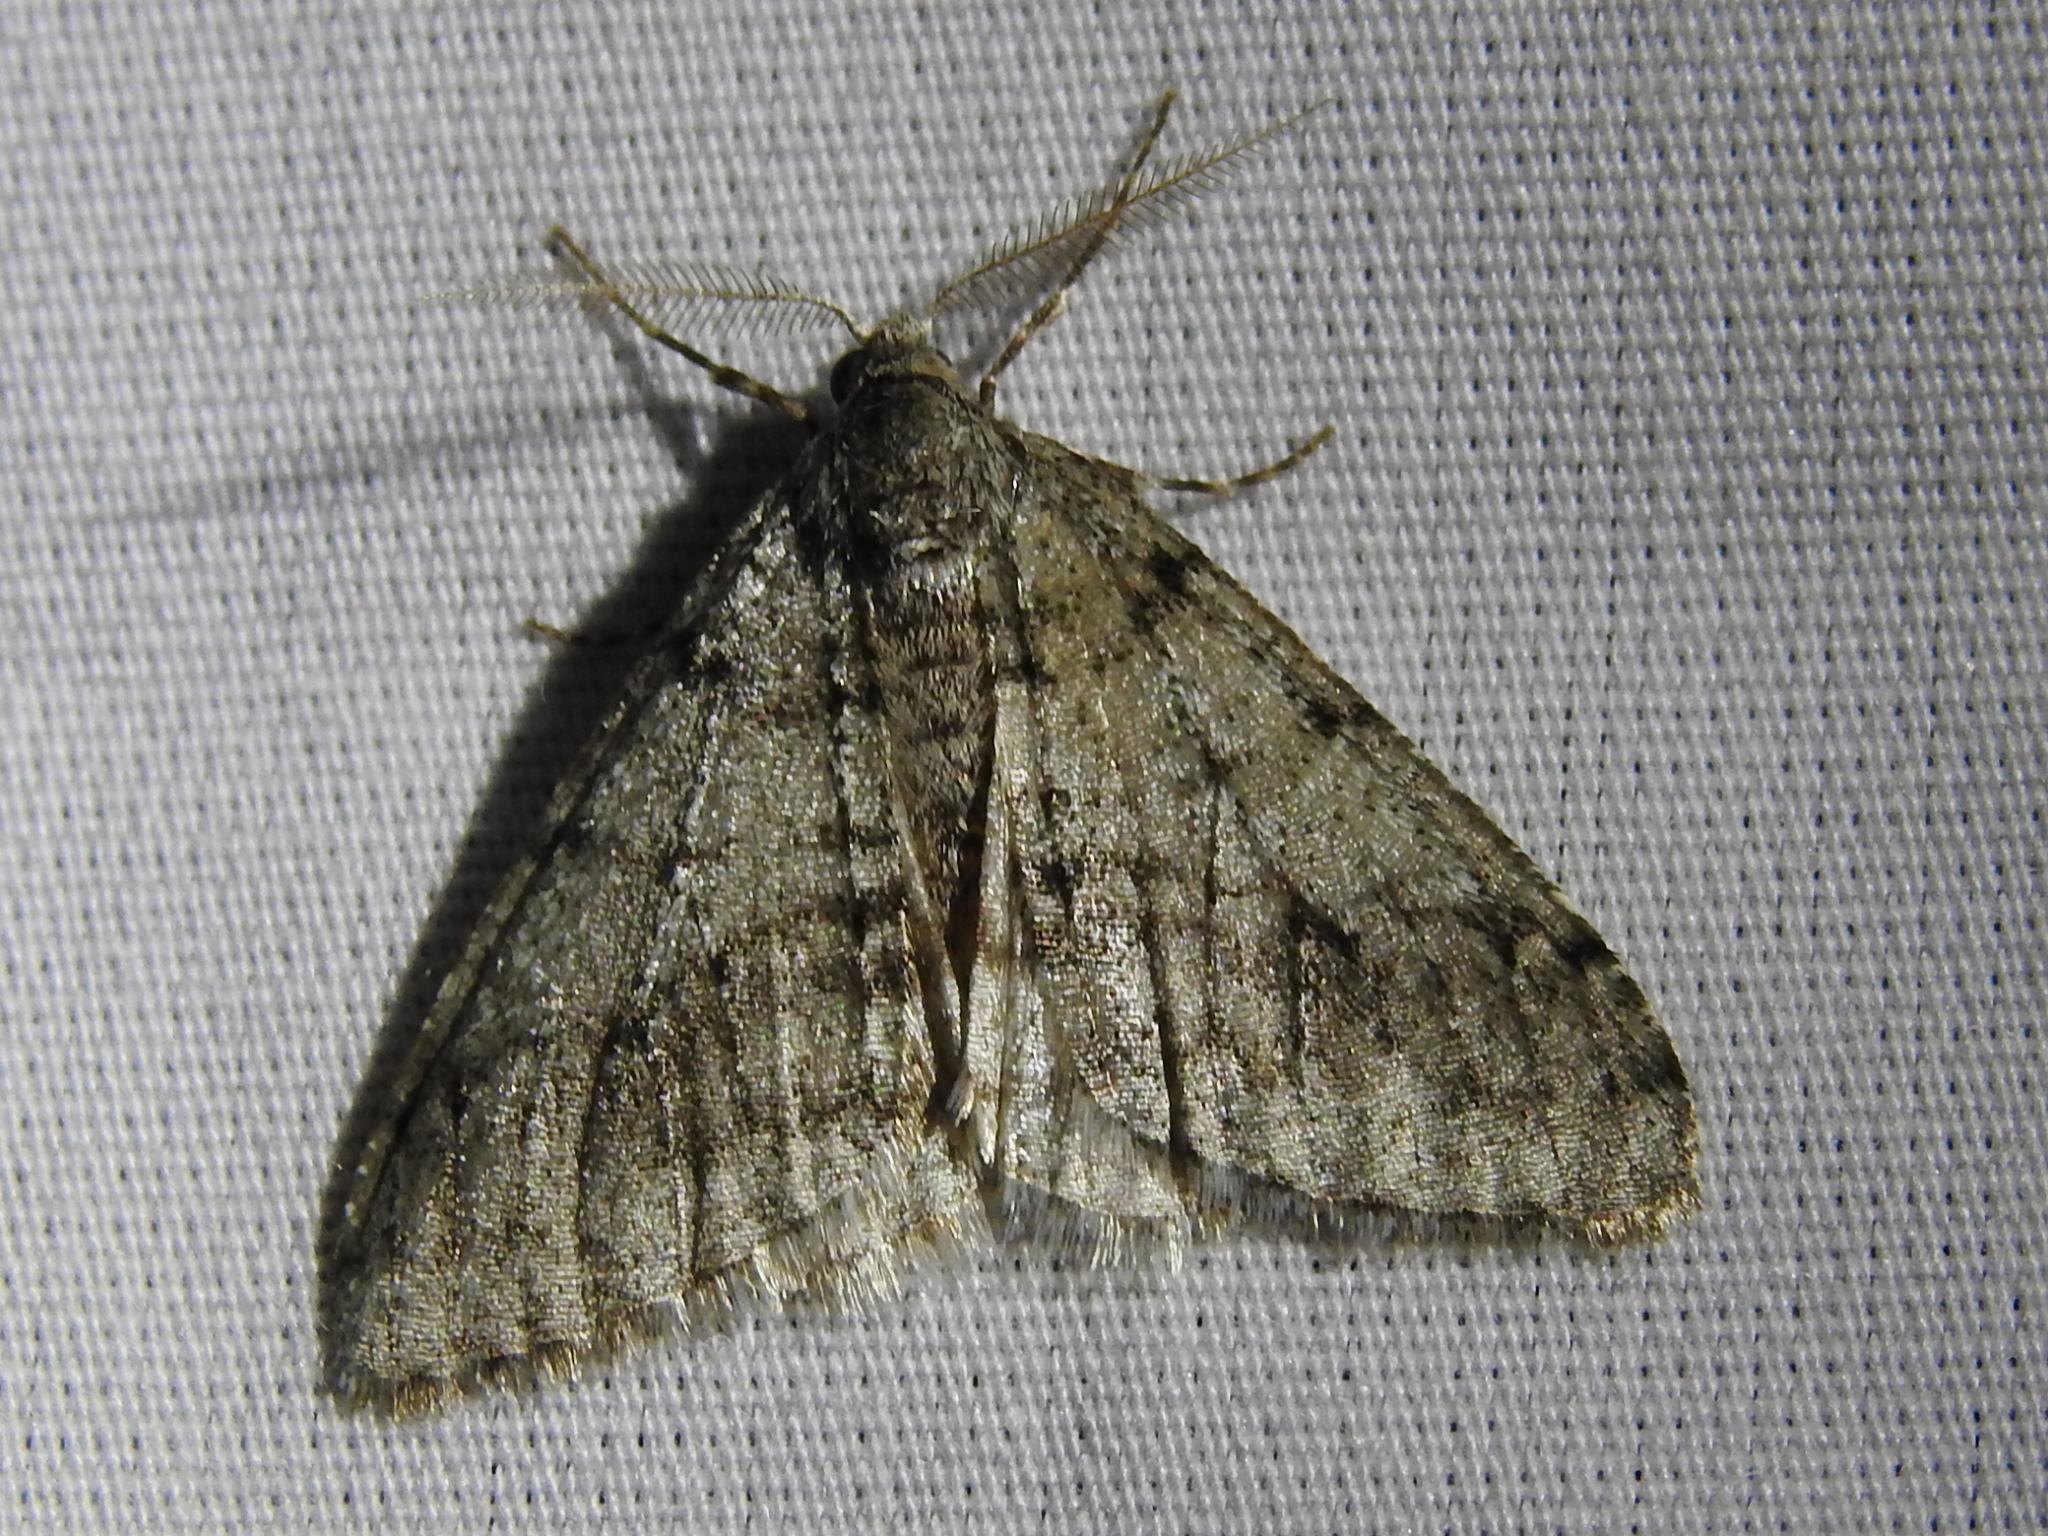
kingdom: Animalia
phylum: Arthropoda
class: Insecta
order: Lepidoptera
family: Geometridae
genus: Phigalia
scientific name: Phigalia strigataria
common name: Small phigalia
